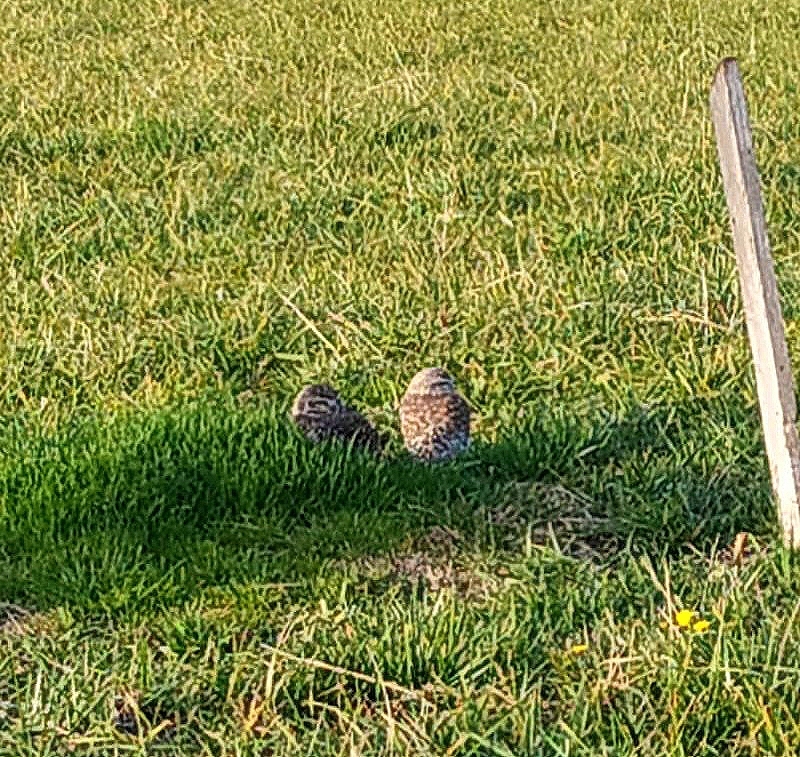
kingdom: Animalia
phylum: Chordata
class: Aves
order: Strigiformes
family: Strigidae
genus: Athene
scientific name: Athene cunicularia
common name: Burrowing owl
